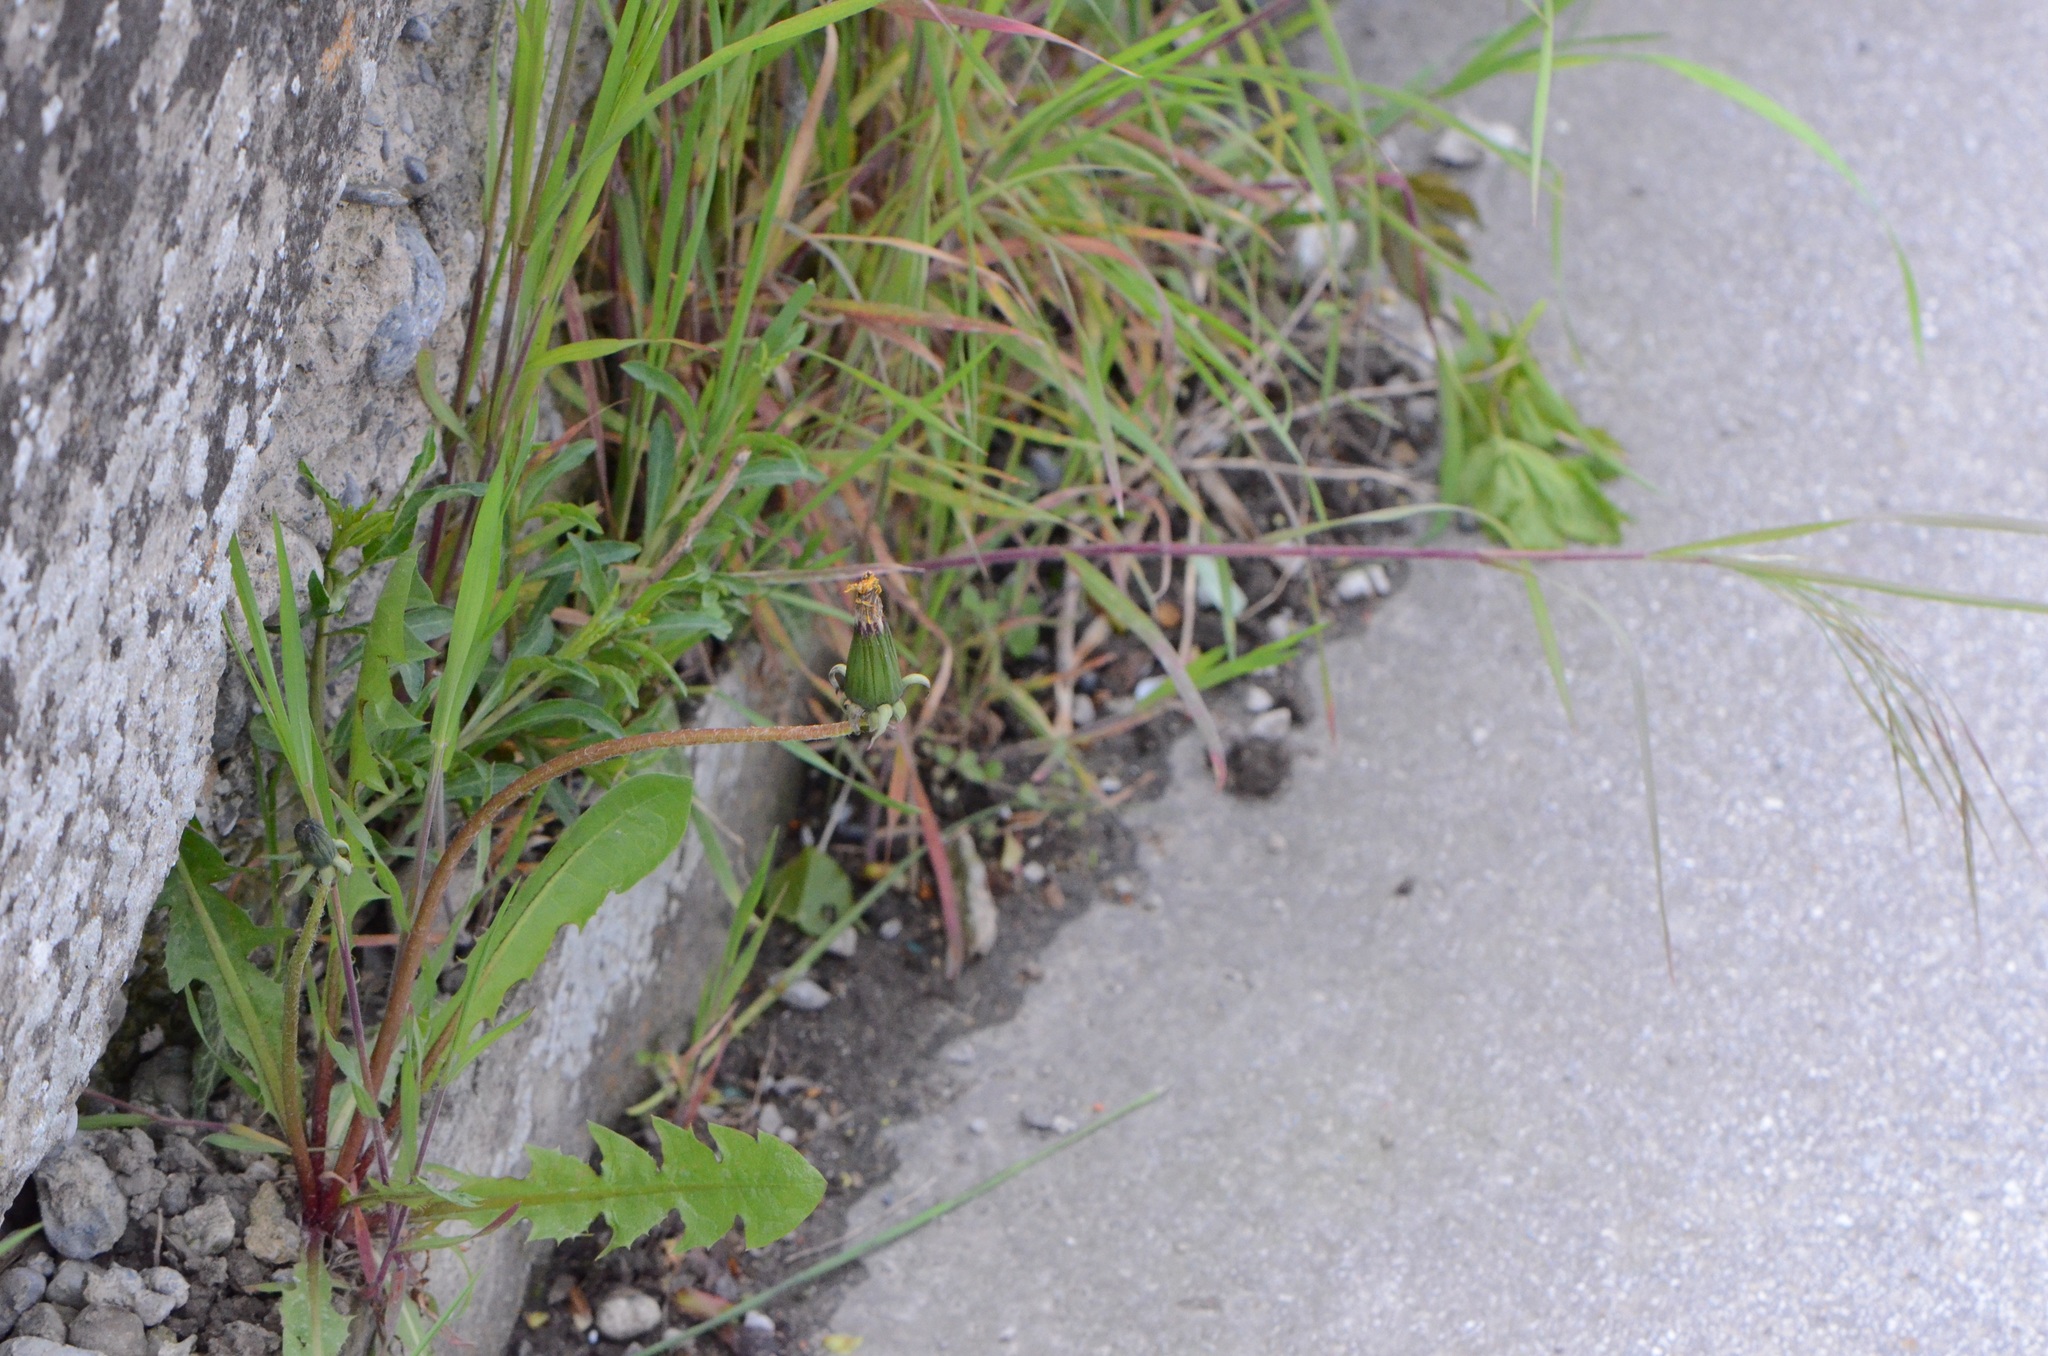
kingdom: Plantae
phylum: Tracheophyta
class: Magnoliopsida
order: Asterales
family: Asteraceae
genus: Taraxacum
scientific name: Taraxacum officinale
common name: Common dandelion
